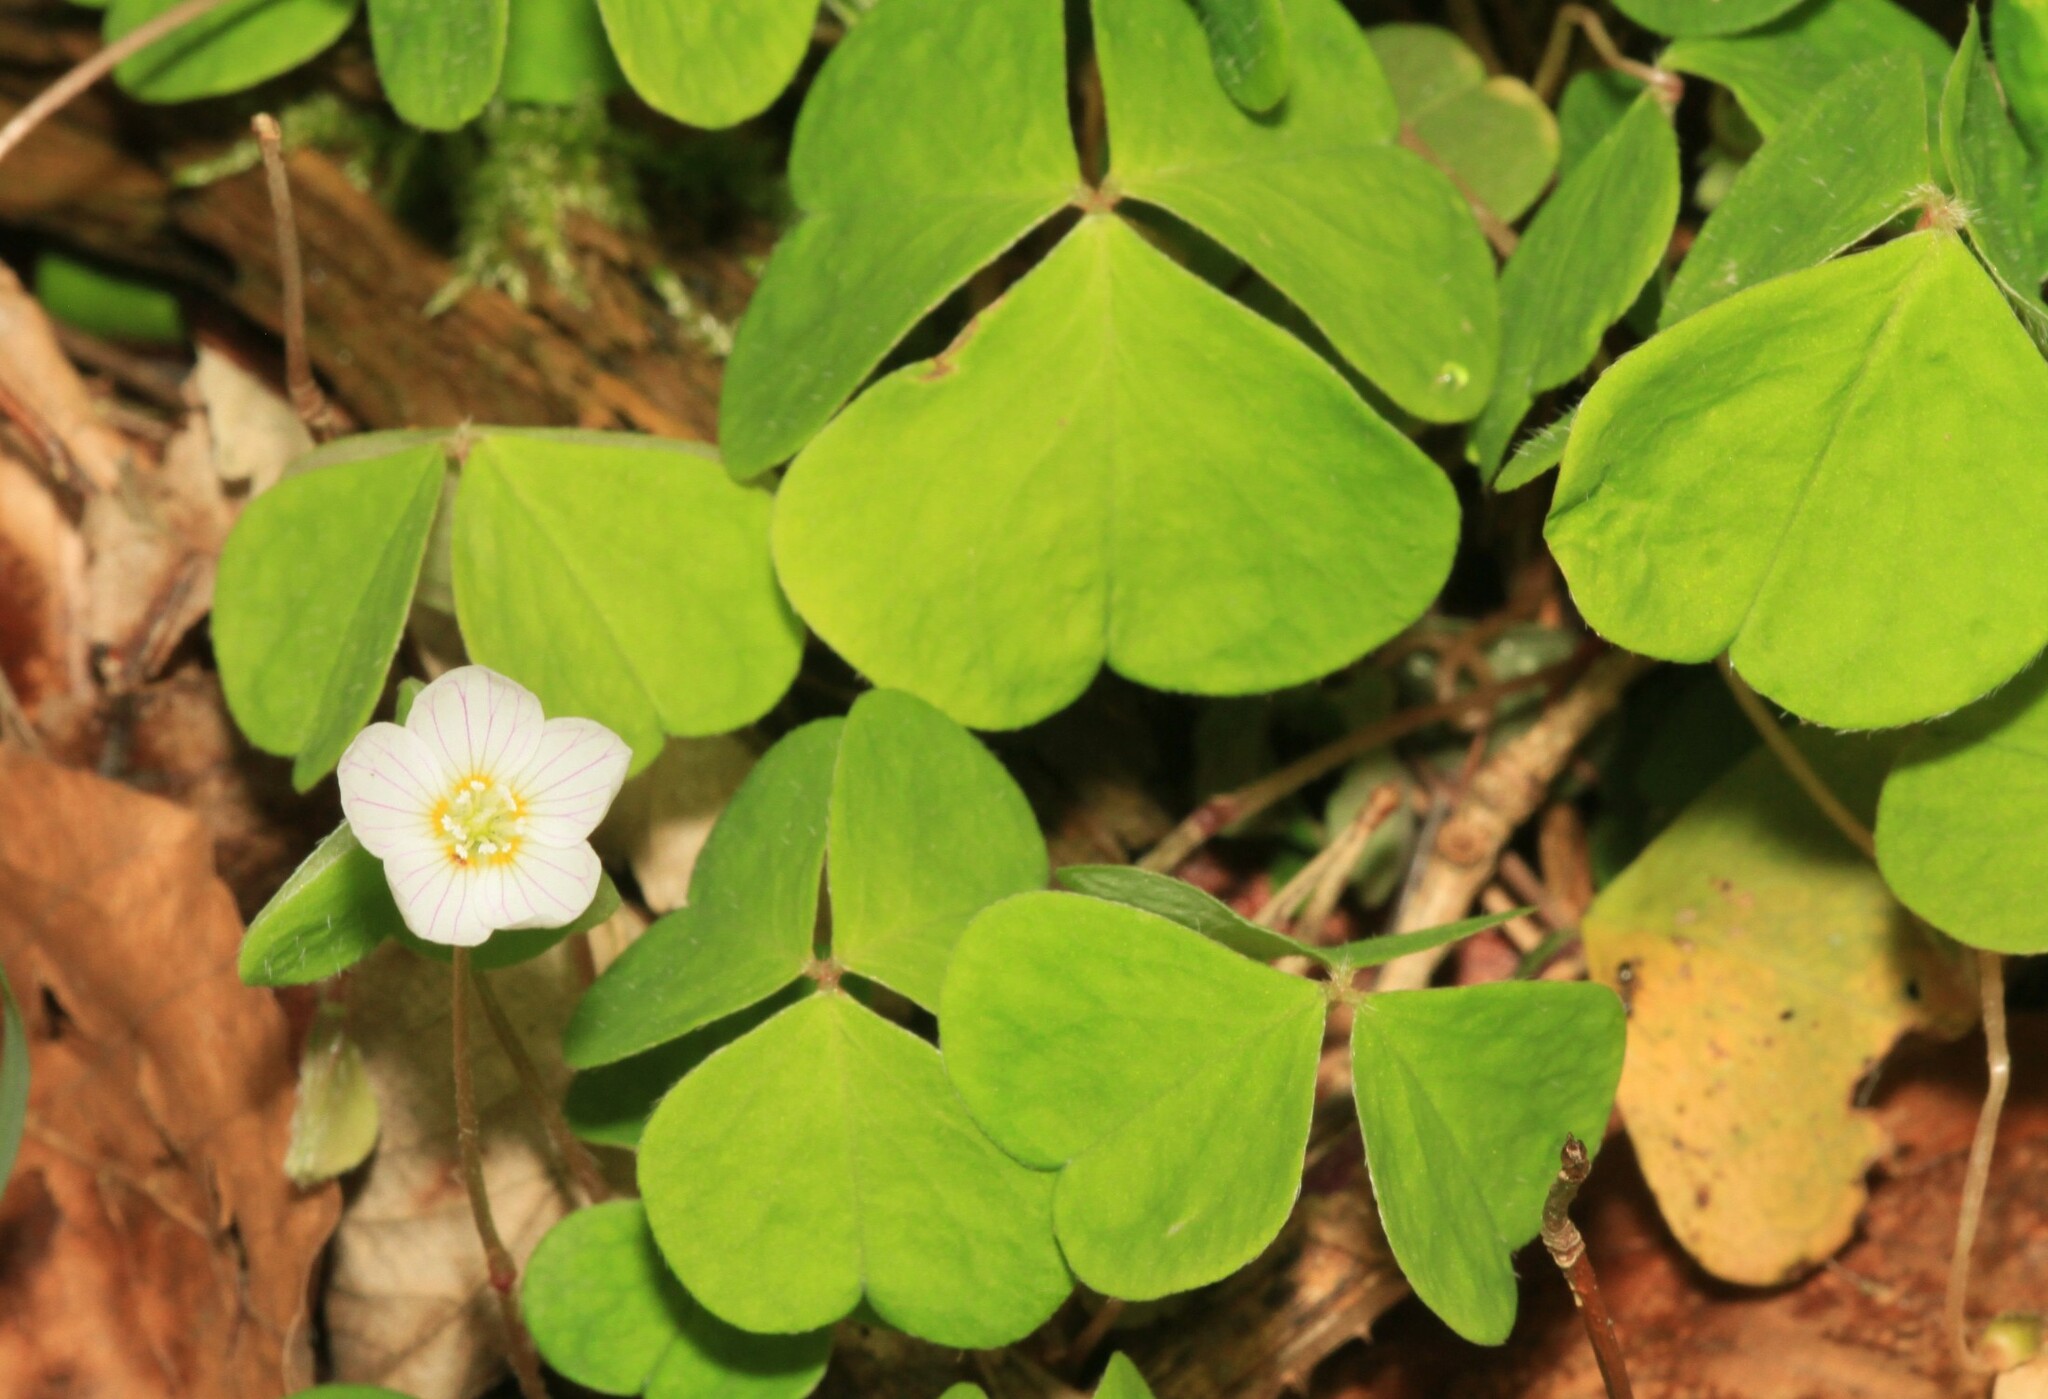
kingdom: Plantae
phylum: Tracheophyta
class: Magnoliopsida
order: Oxalidales
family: Oxalidaceae
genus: Oxalis
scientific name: Oxalis acetosella
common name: Wood-sorrel
